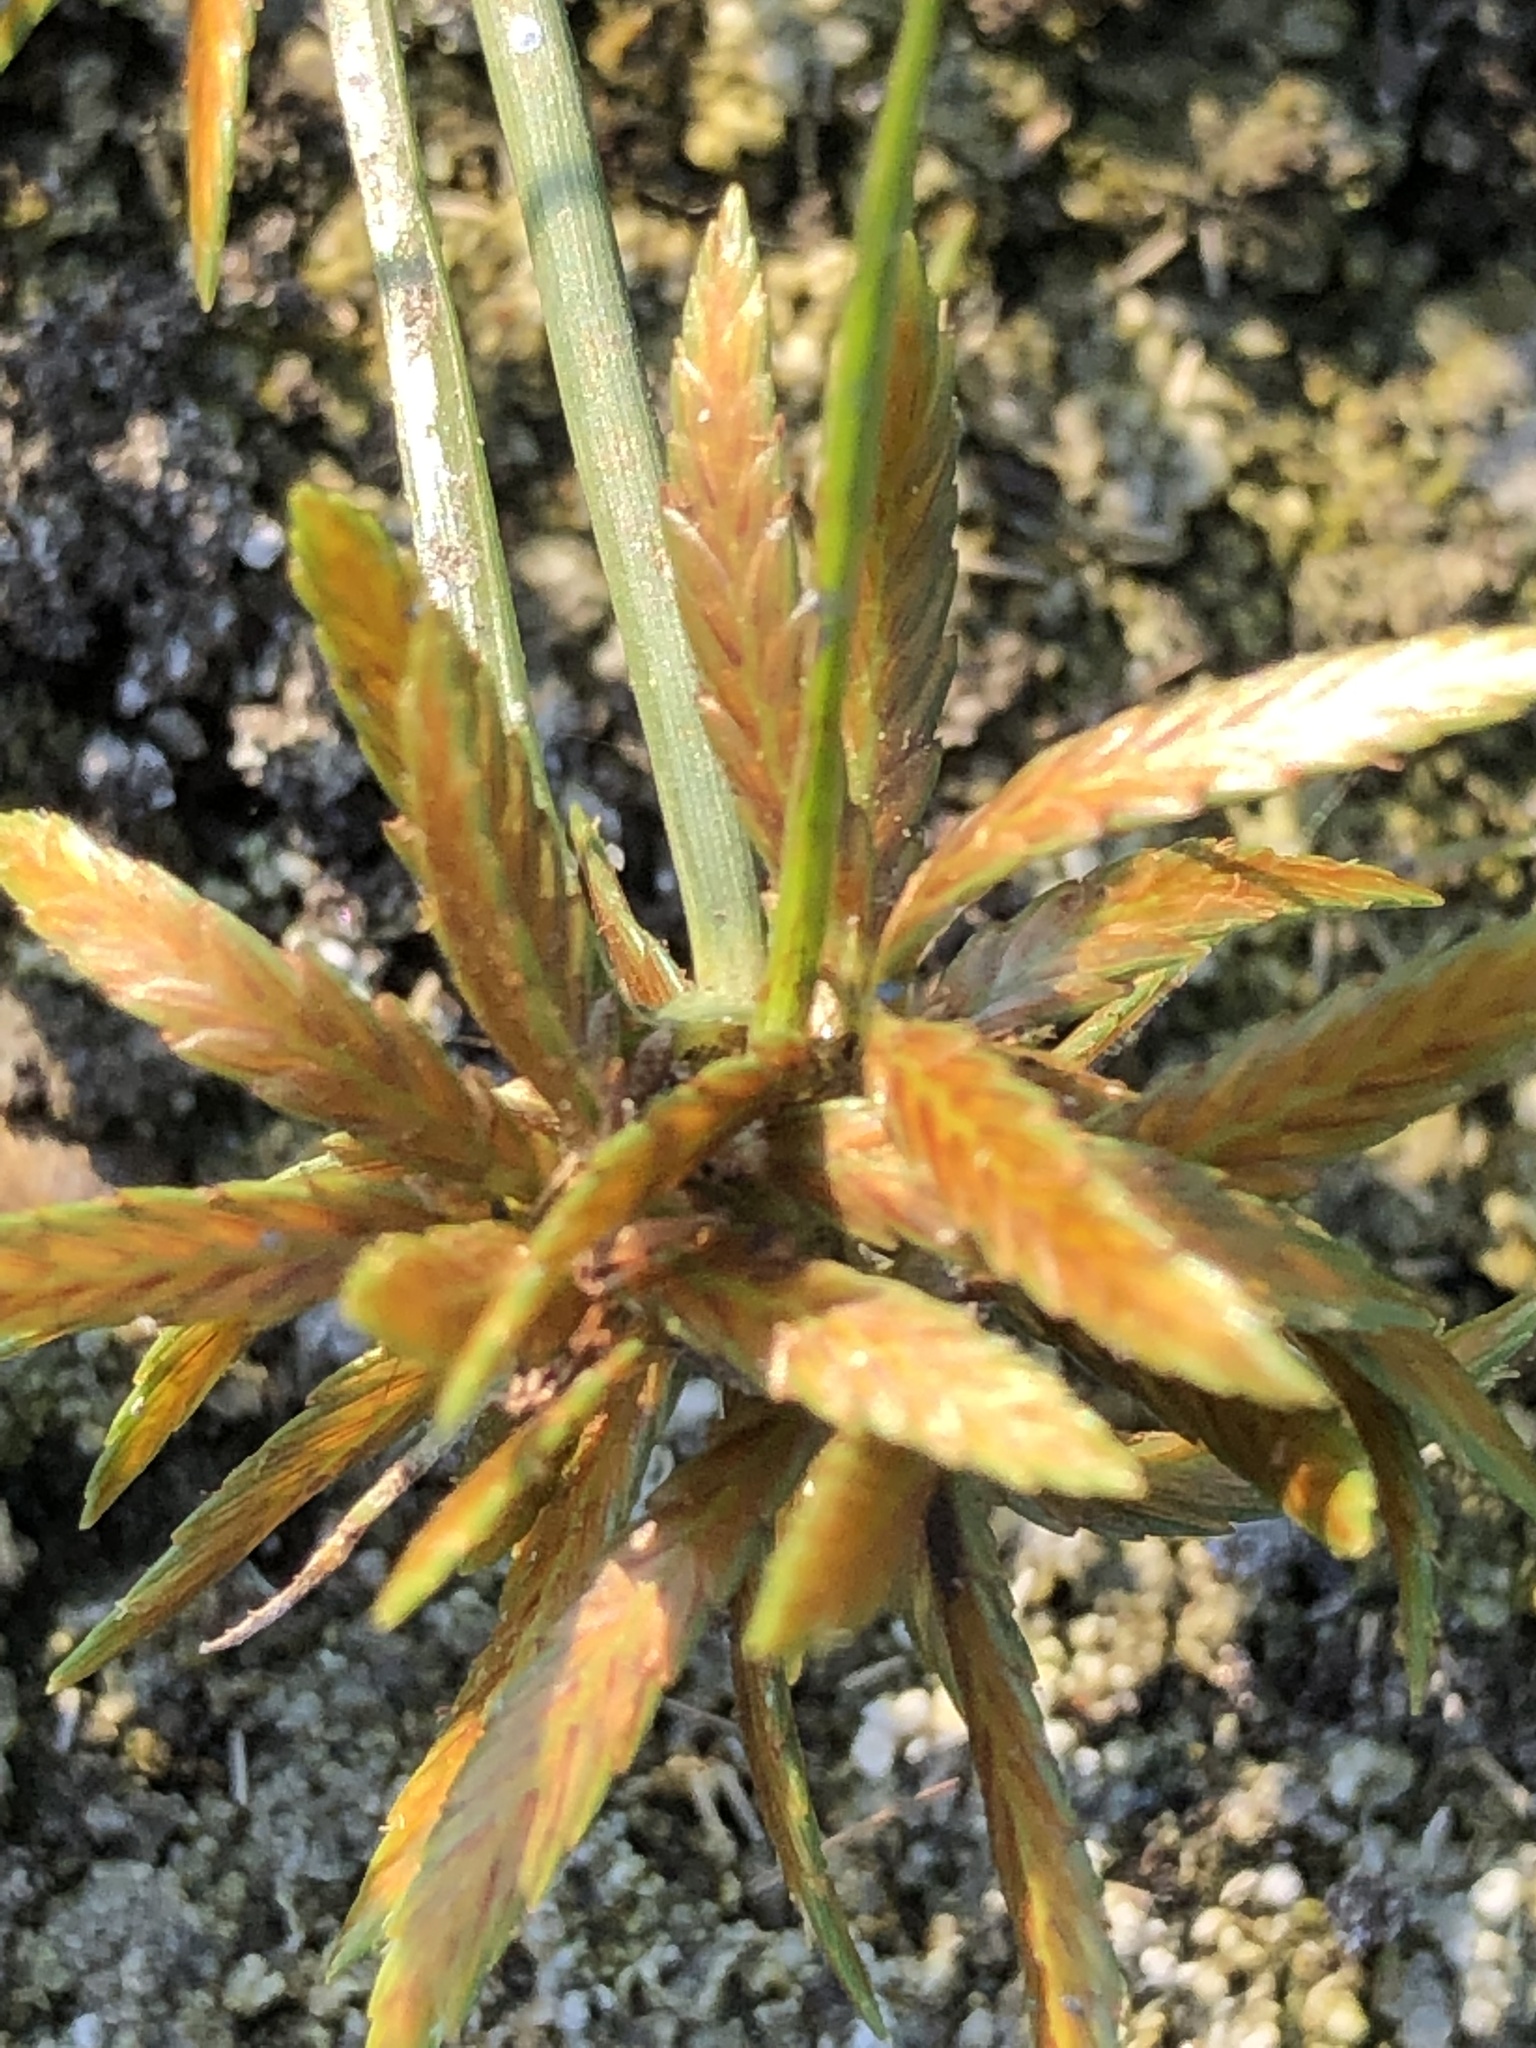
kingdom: Plantae
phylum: Tracheophyta
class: Liliopsida
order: Poales
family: Cyperaceae
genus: Cyperus
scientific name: Cyperus filicinus
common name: Fern flatsedge
